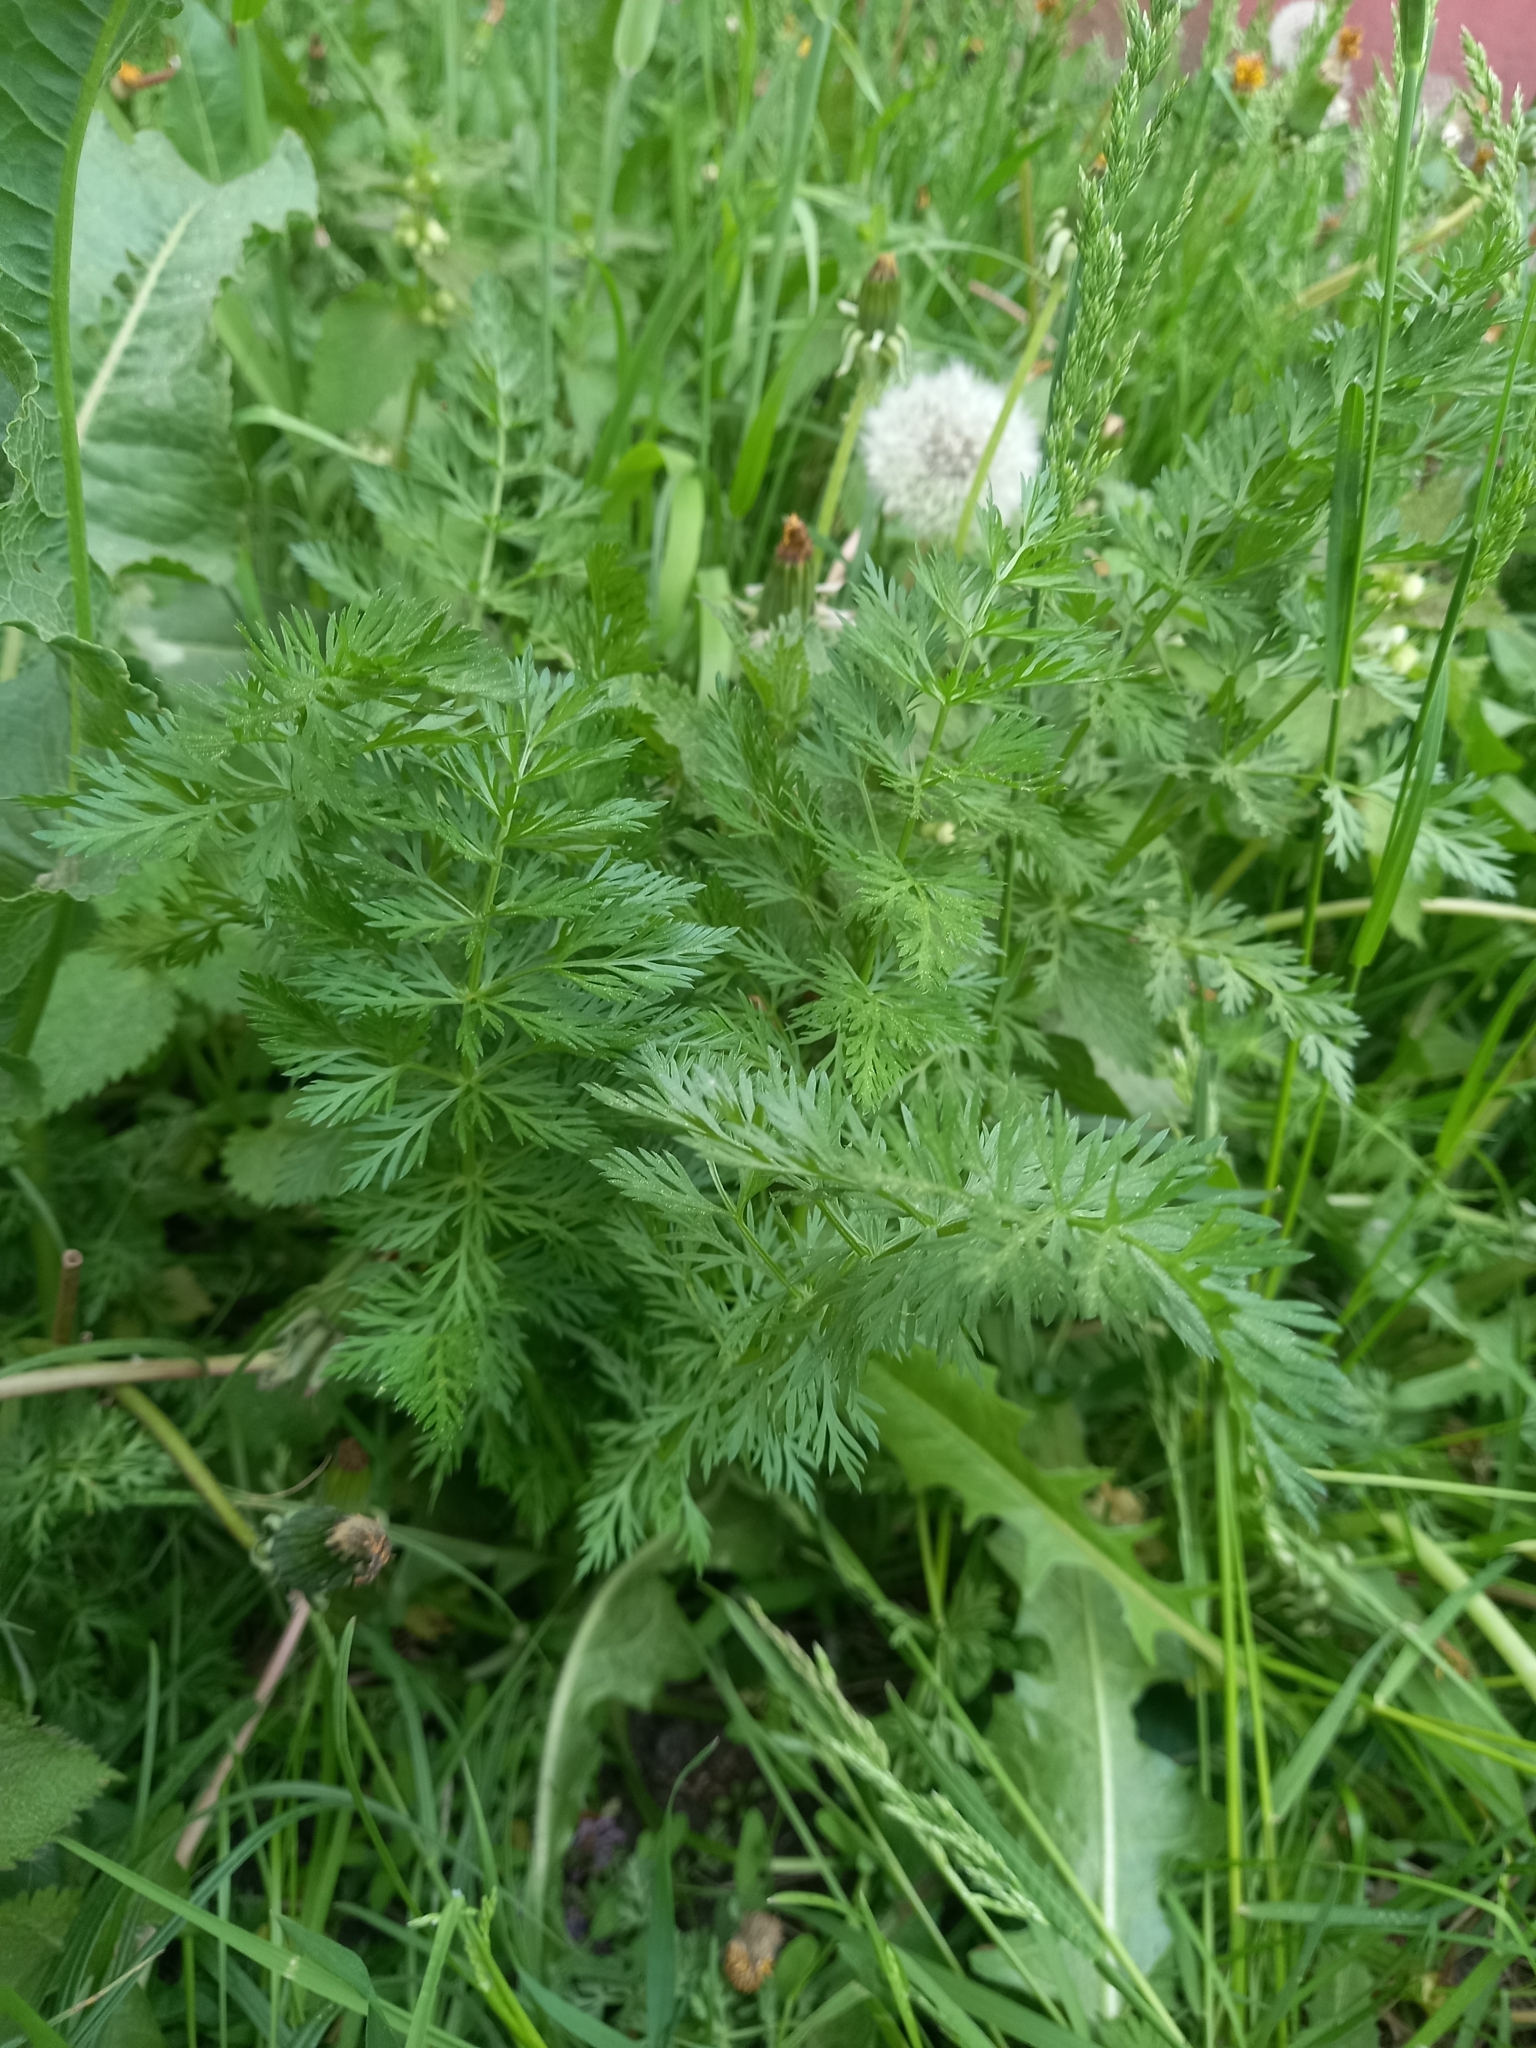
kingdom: Plantae
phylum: Tracheophyta
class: Magnoliopsida
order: Apiales
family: Apiaceae
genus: Carum
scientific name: Carum carvi
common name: Caraway
